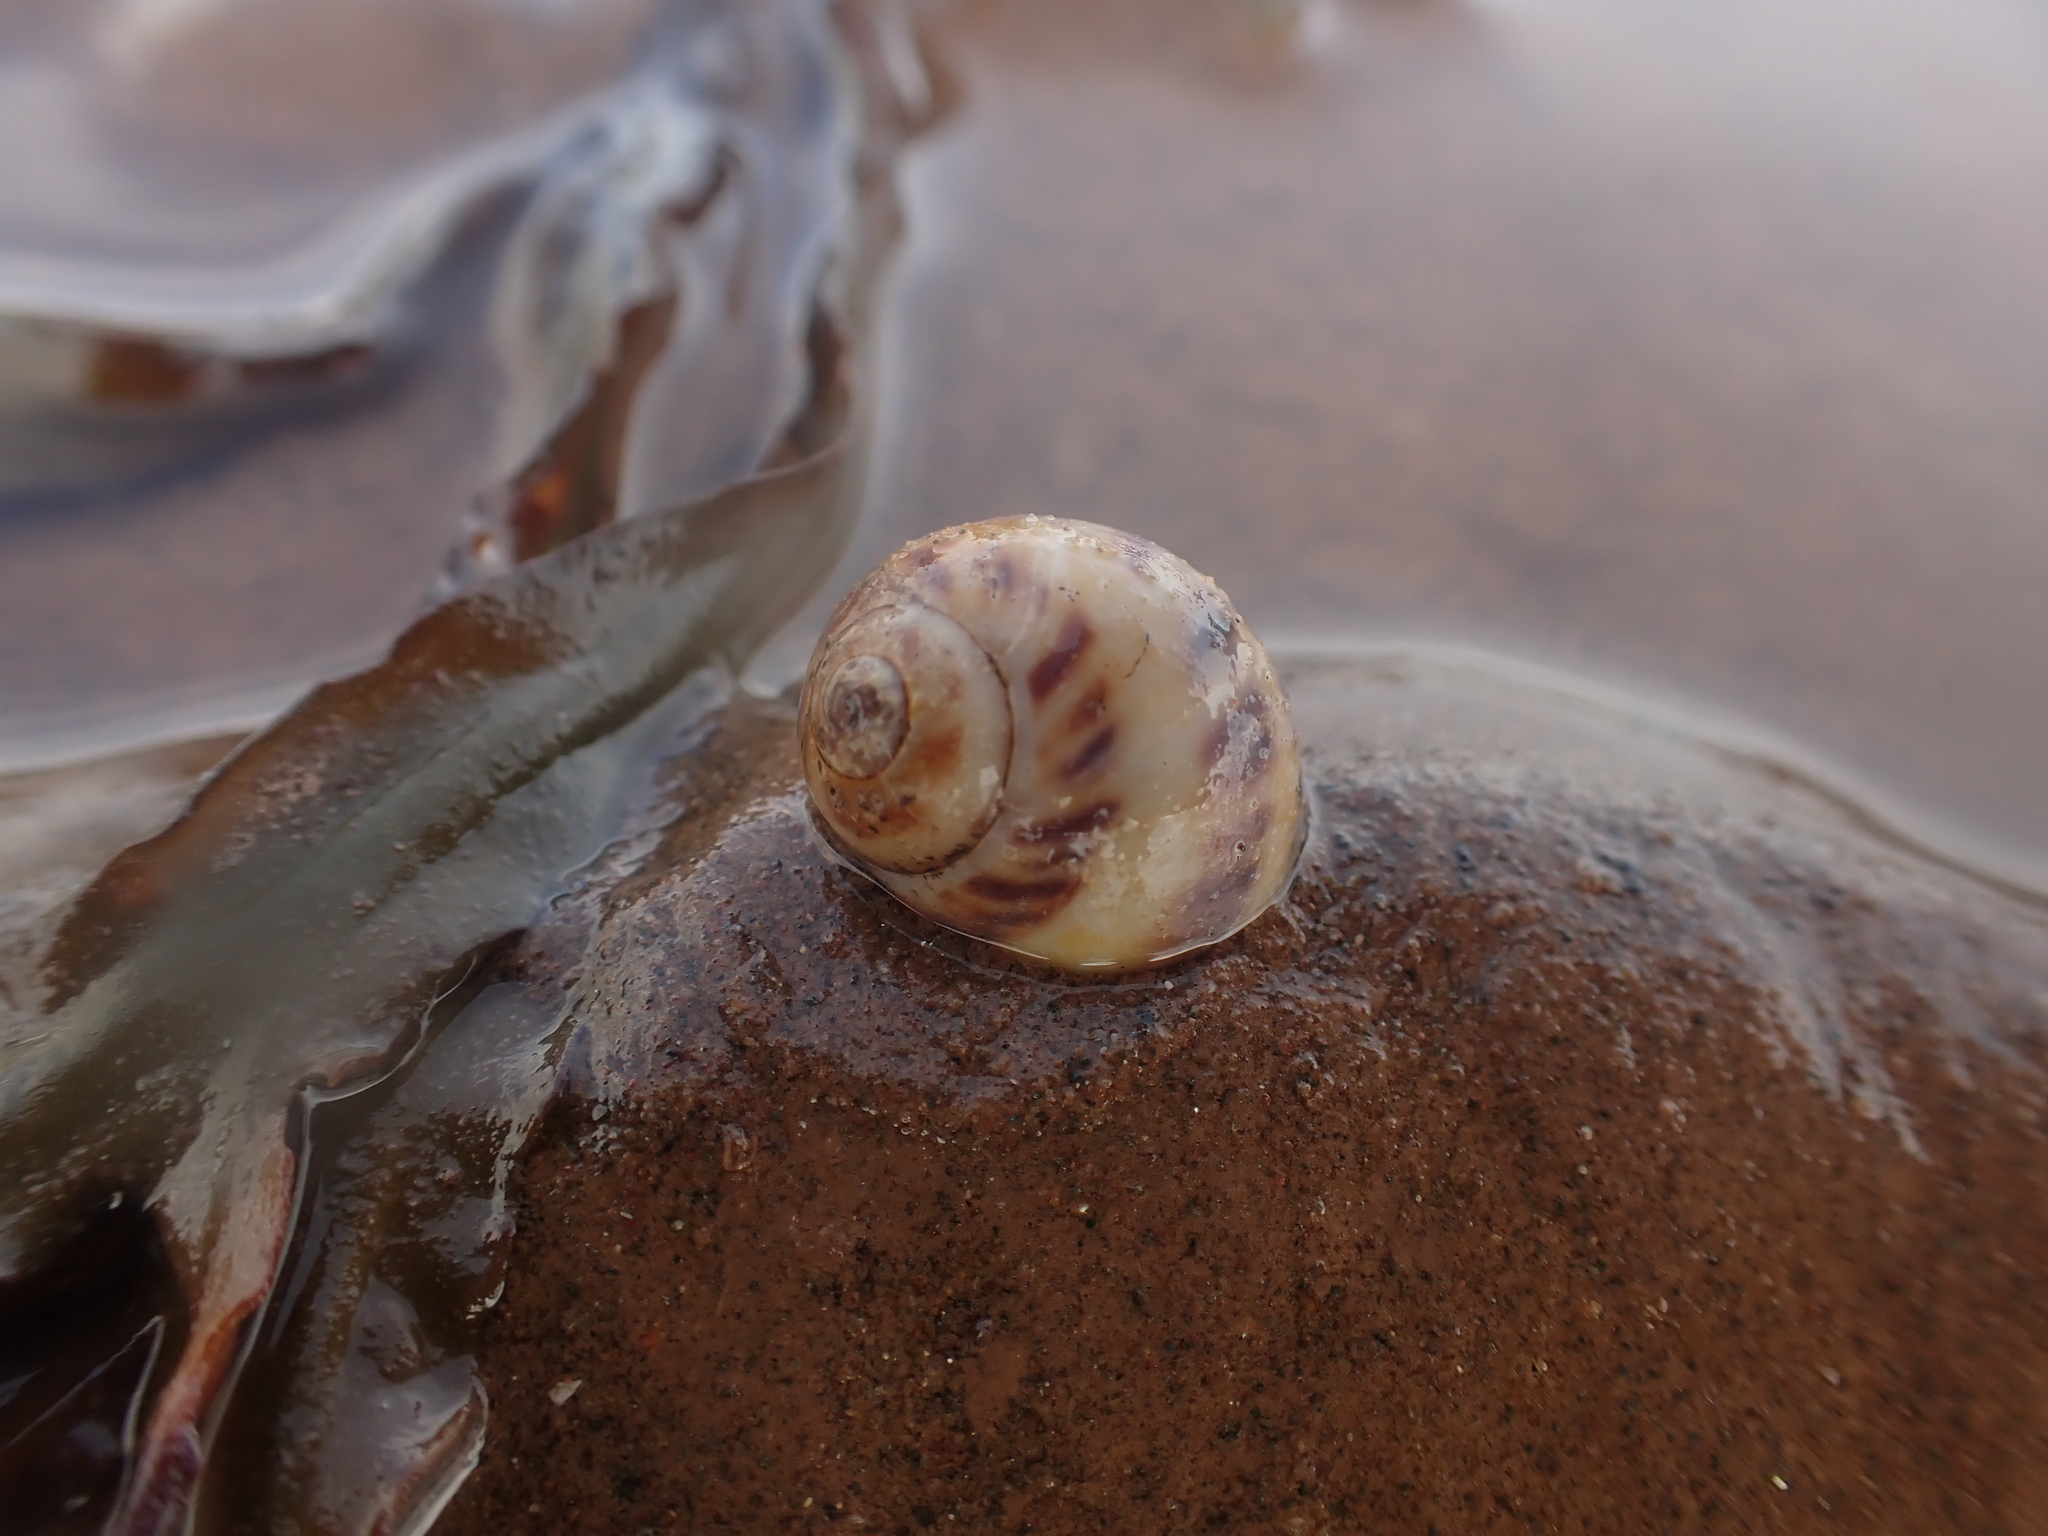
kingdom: Animalia
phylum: Mollusca
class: Gastropoda
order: Littorinimorpha
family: Naticidae
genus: Euspira
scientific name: Euspira triseriata
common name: Spotted moonsnail
